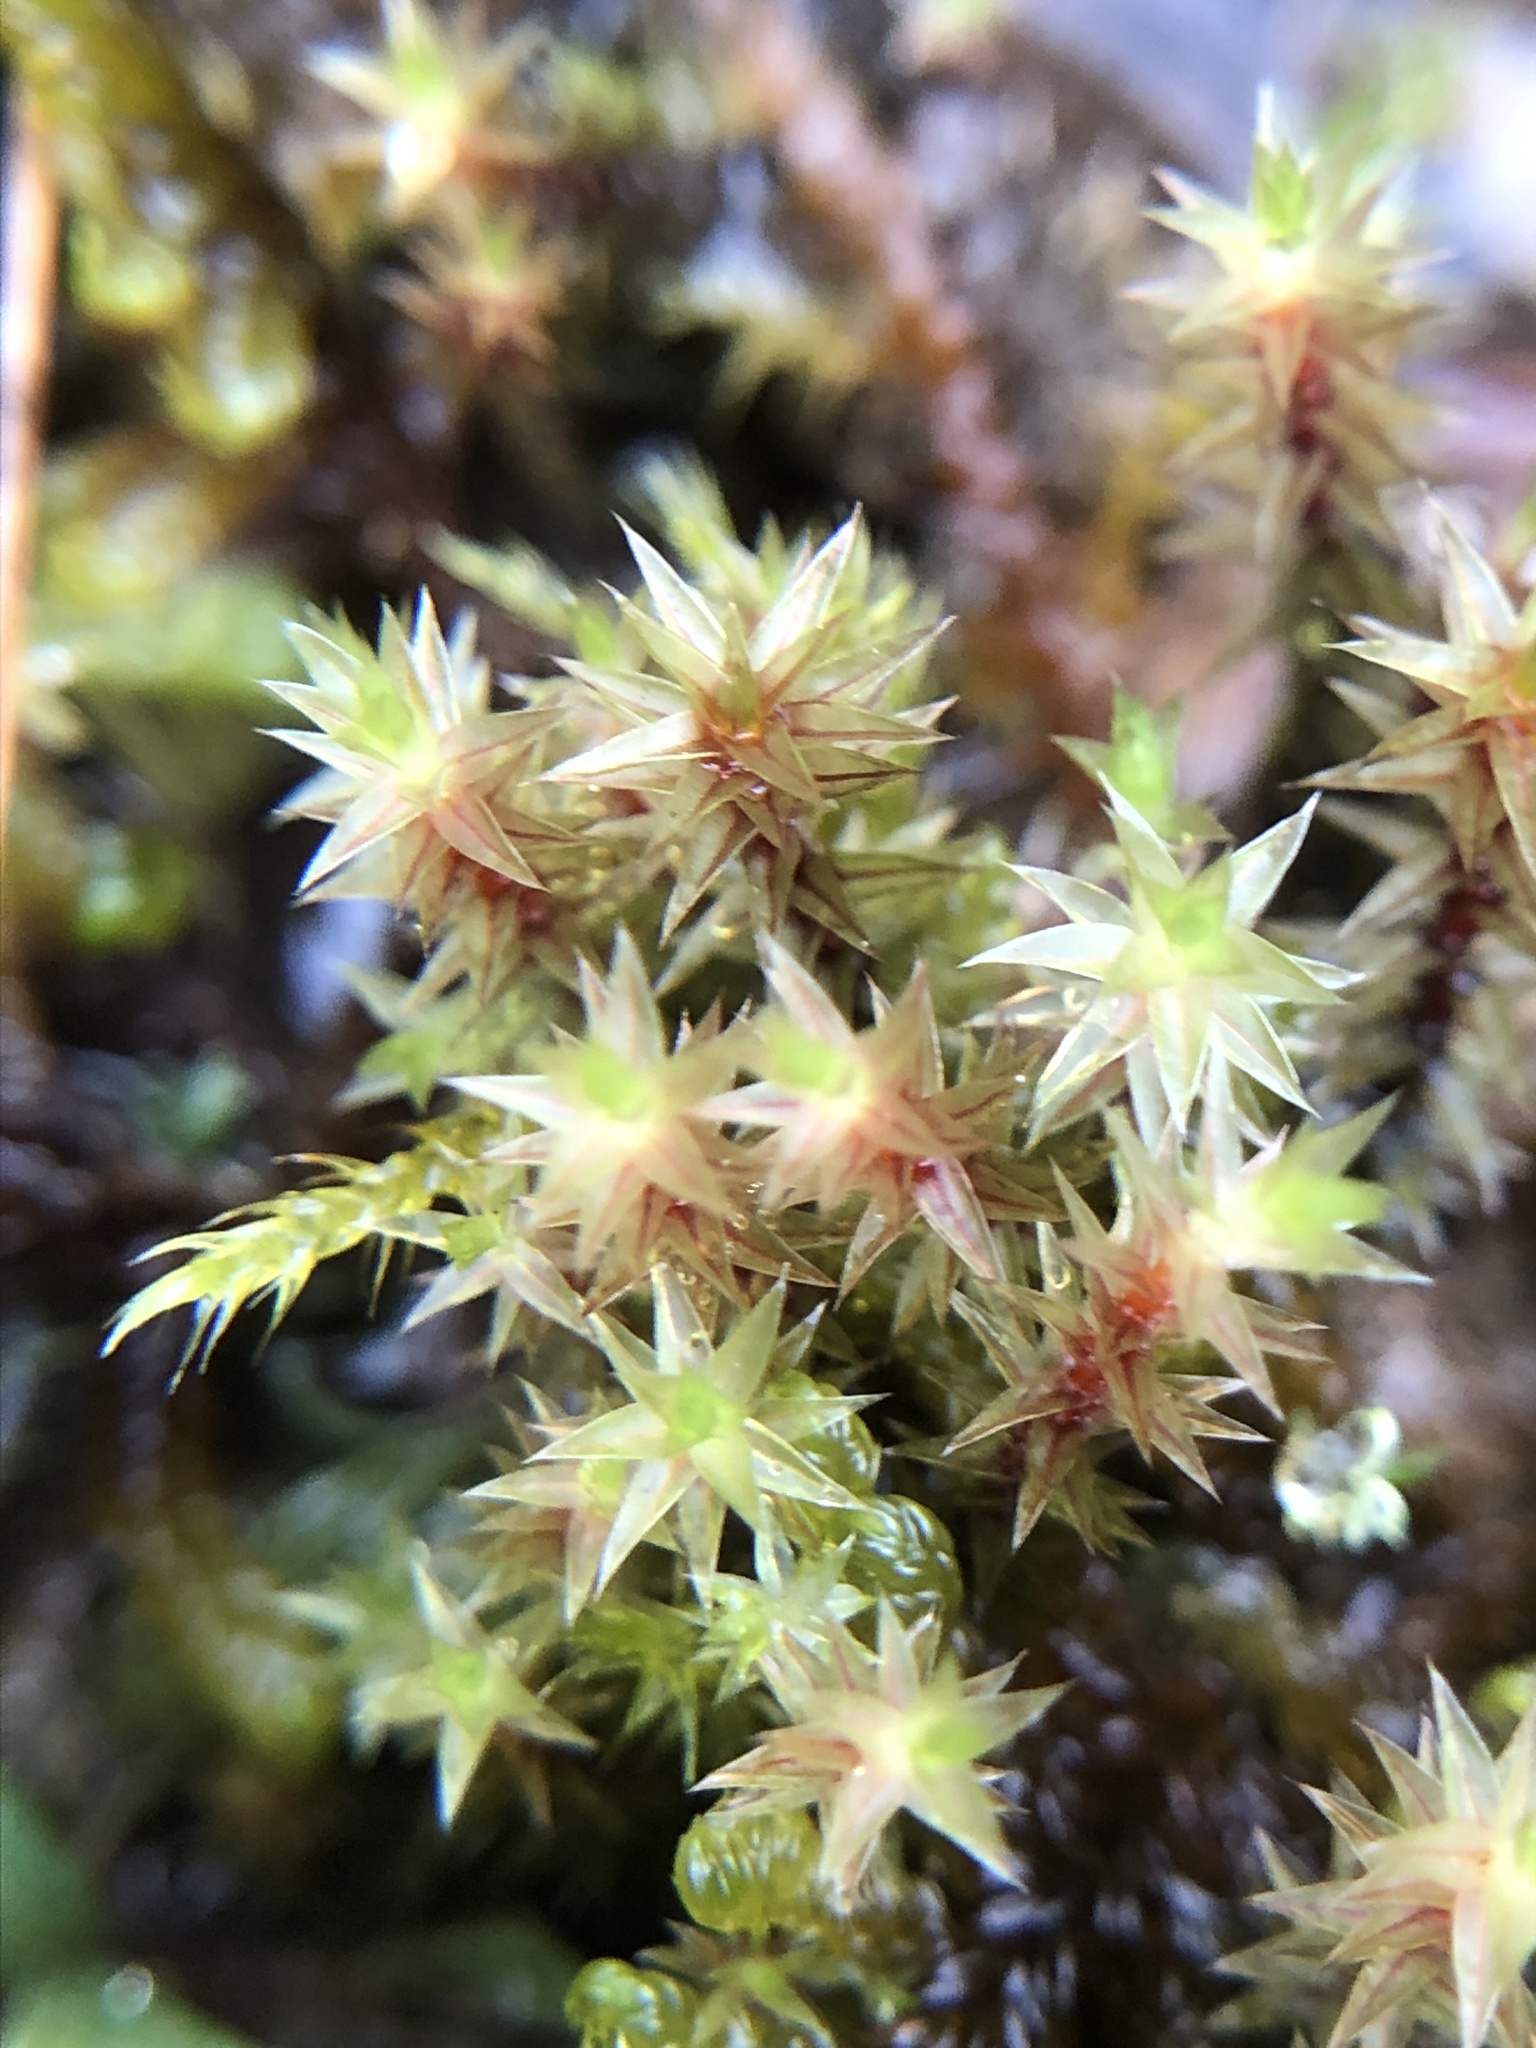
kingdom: Plantae
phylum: Bryophyta
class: Bryopsida
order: Bryales
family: Bryaceae
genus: Ptychostomum
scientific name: Ptychostomum pseudotriquetrum
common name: Long-leaved thread moss
